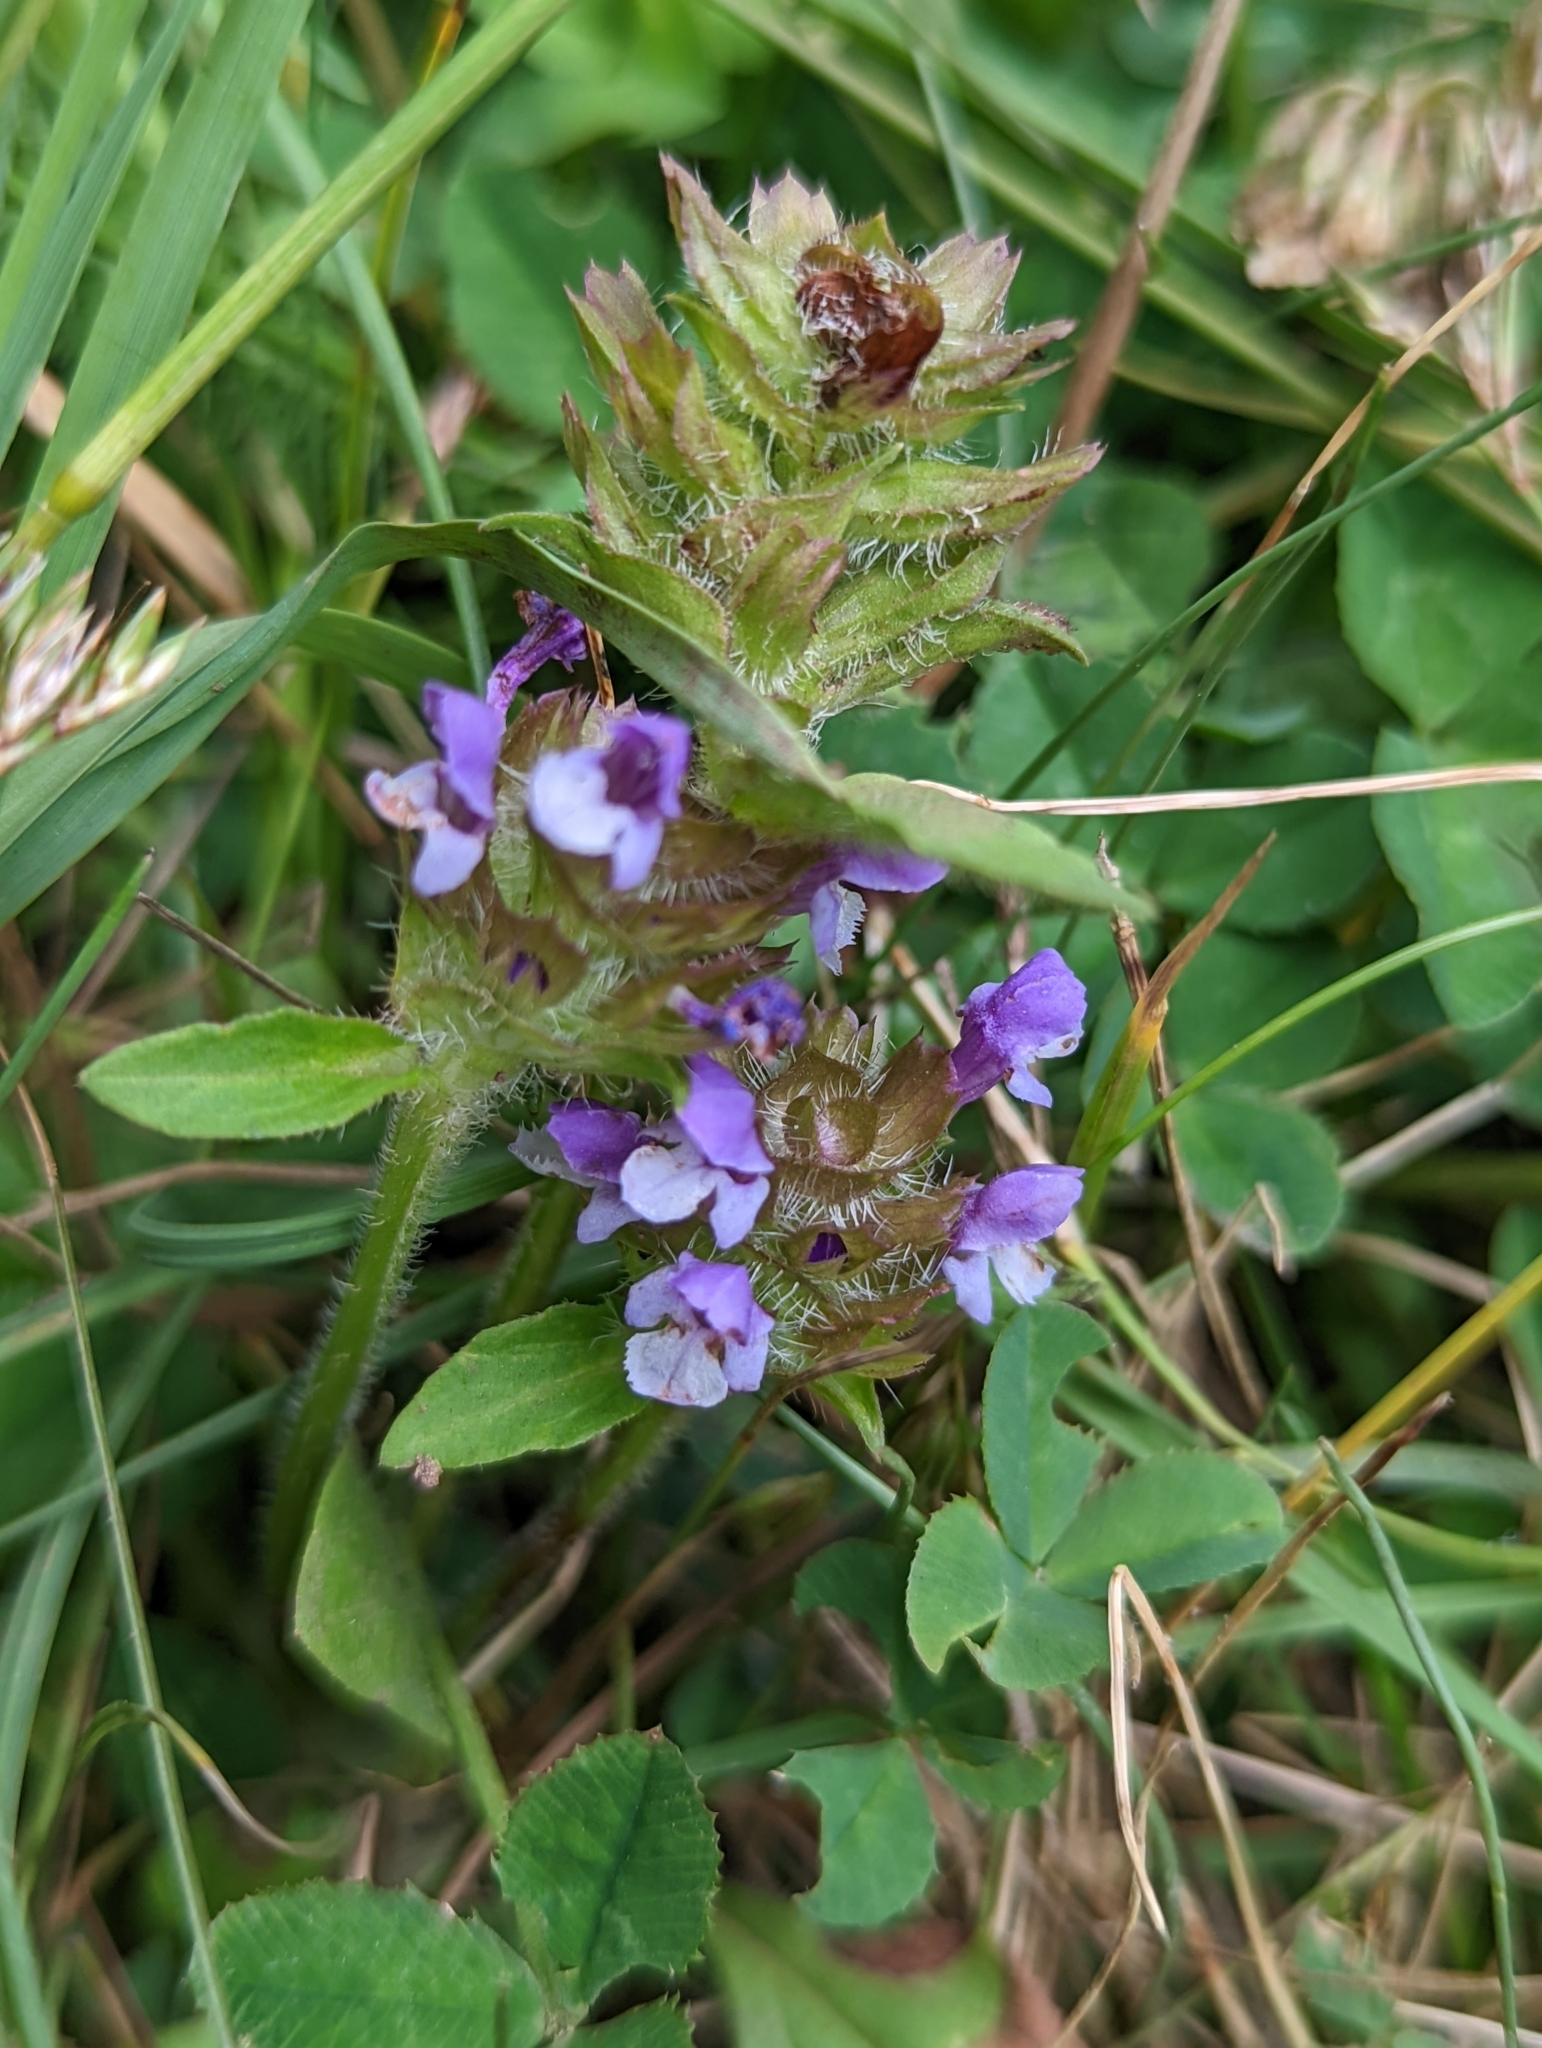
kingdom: Plantae
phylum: Tracheophyta
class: Magnoliopsida
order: Lamiales
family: Lamiaceae
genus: Prunella
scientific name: Prunella vulgaris
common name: Heal-all
